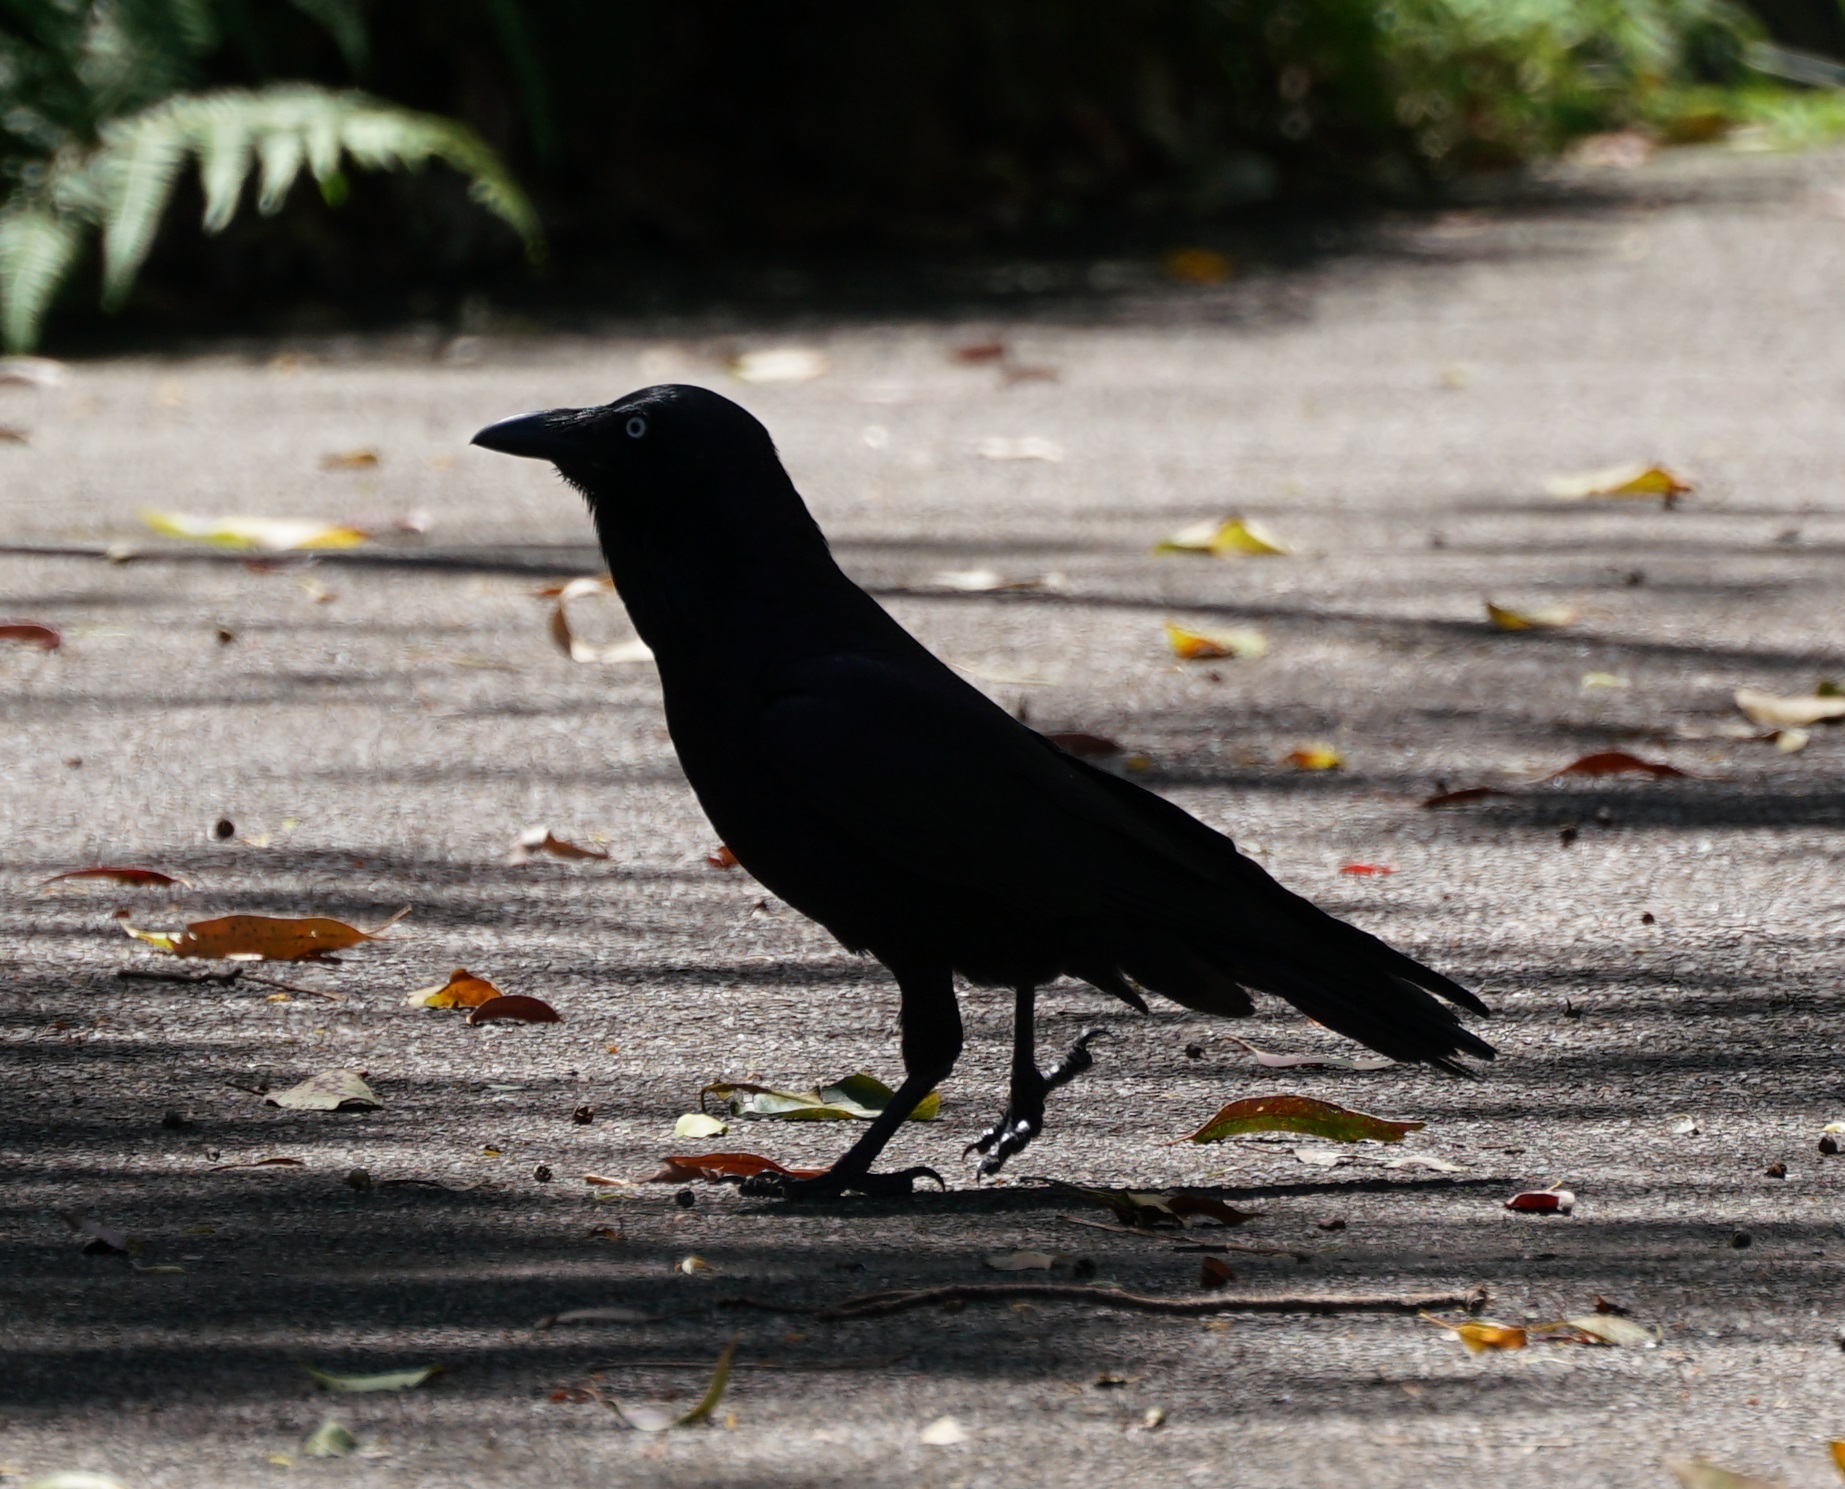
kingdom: Animalia
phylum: Chordata
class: Aves
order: Passeriformes
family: Corvidae
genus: Corvus
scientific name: Corvus coronoides
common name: Australian raven
